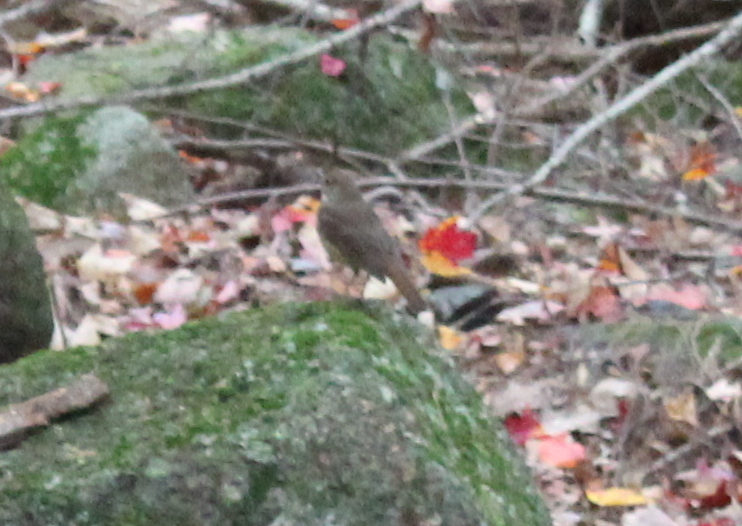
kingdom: Animalia
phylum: Chordata
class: Aves
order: Passeriformes
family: Turdidae
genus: Catharus
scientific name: Catharus guttatus
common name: Hermit thrush
